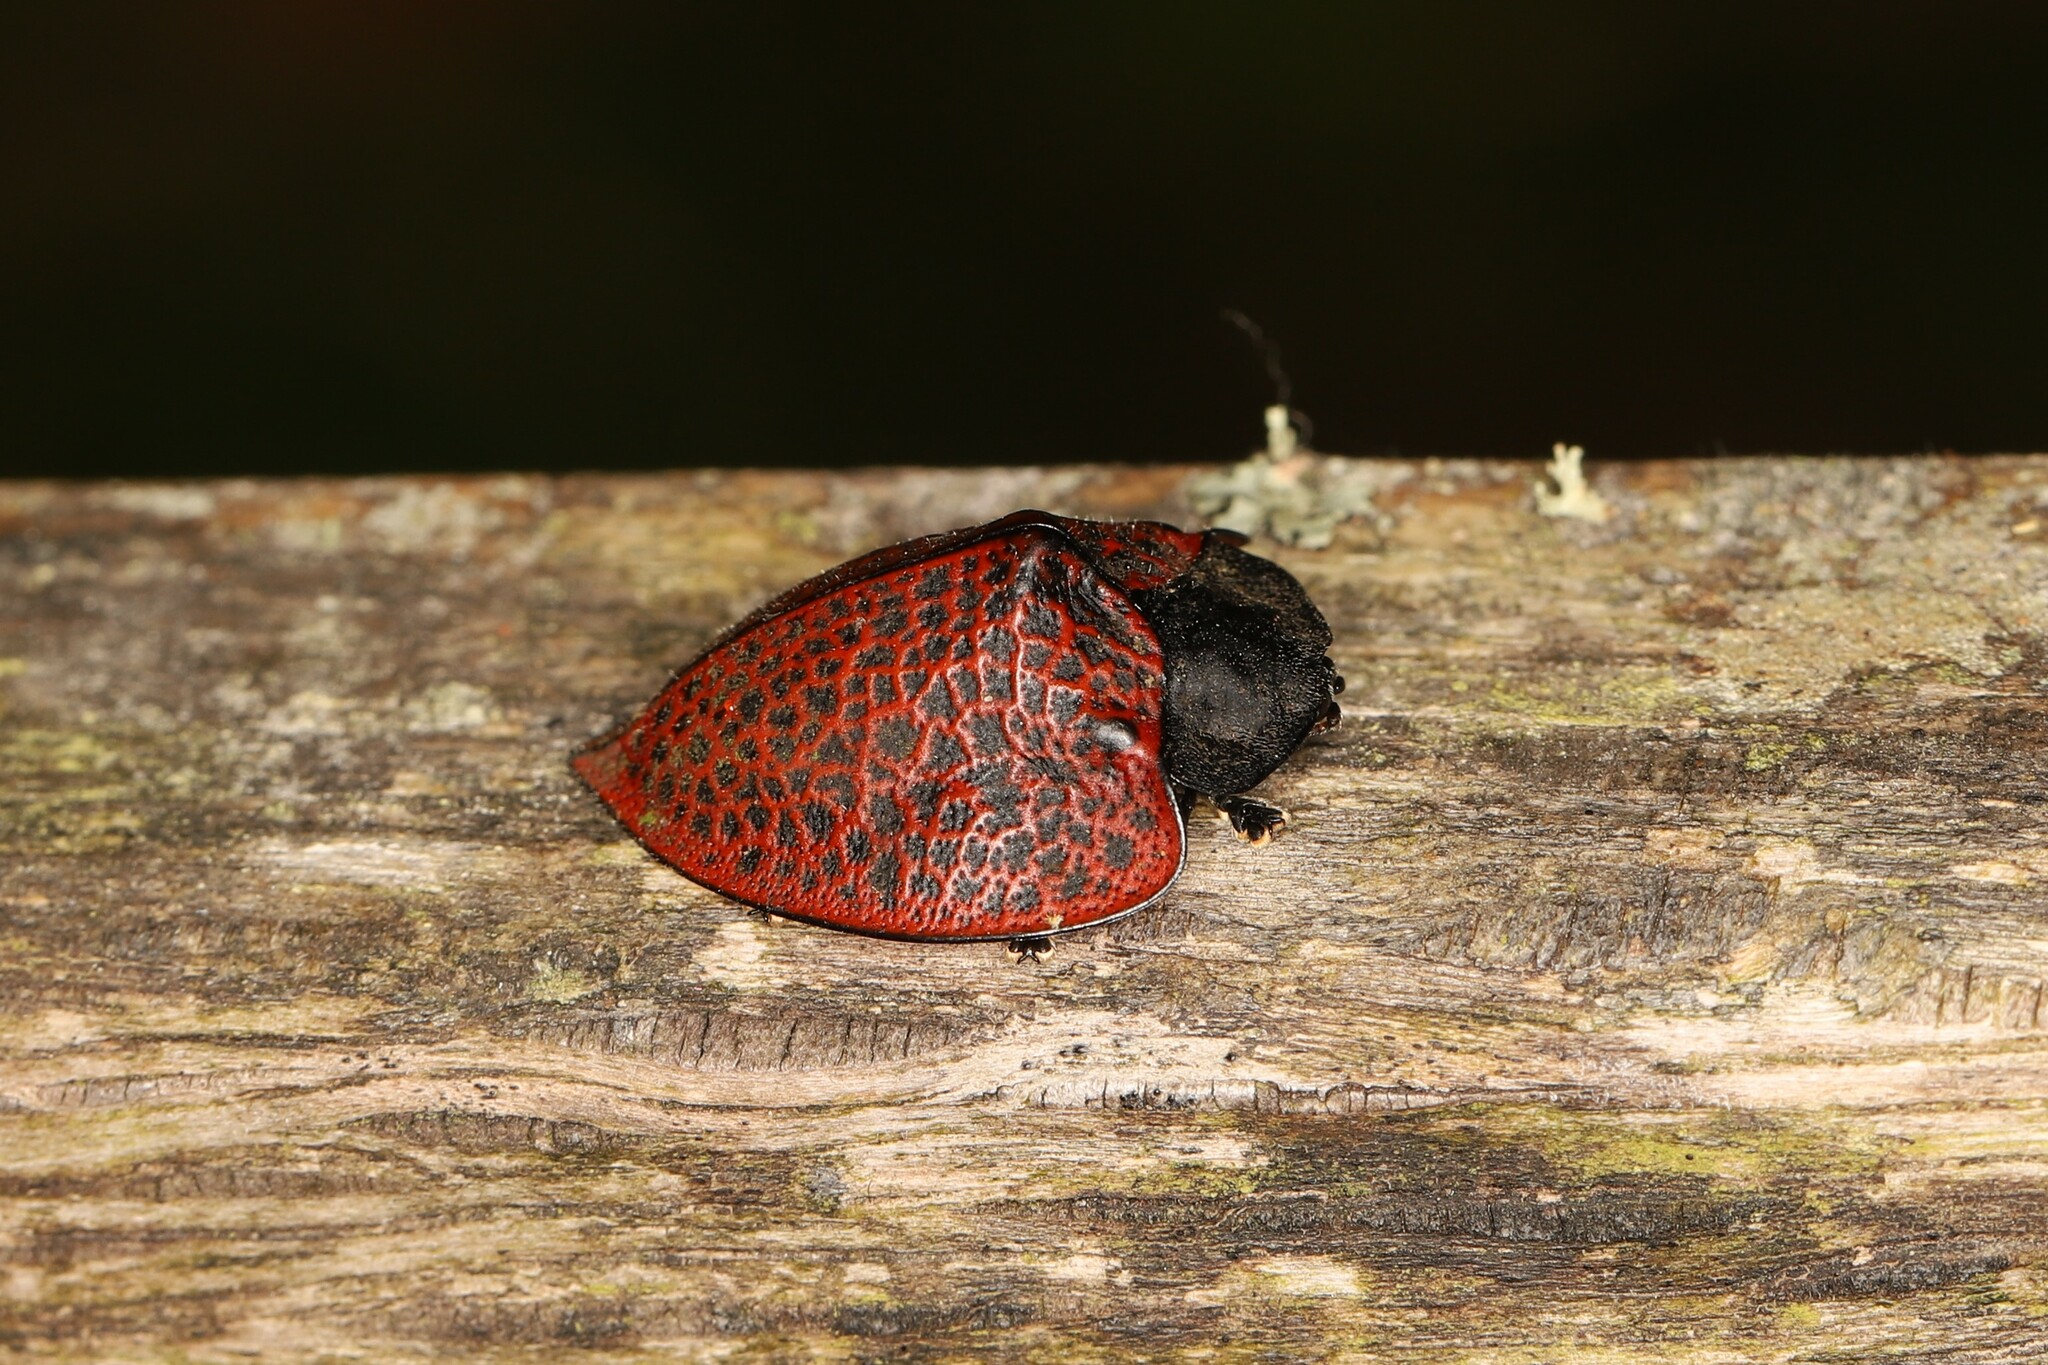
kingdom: Animalia
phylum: Arthropoda
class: Insecta
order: Coleoptera
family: Chrysomelidae
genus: Cyrtonota
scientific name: Cyrtonota textilis
